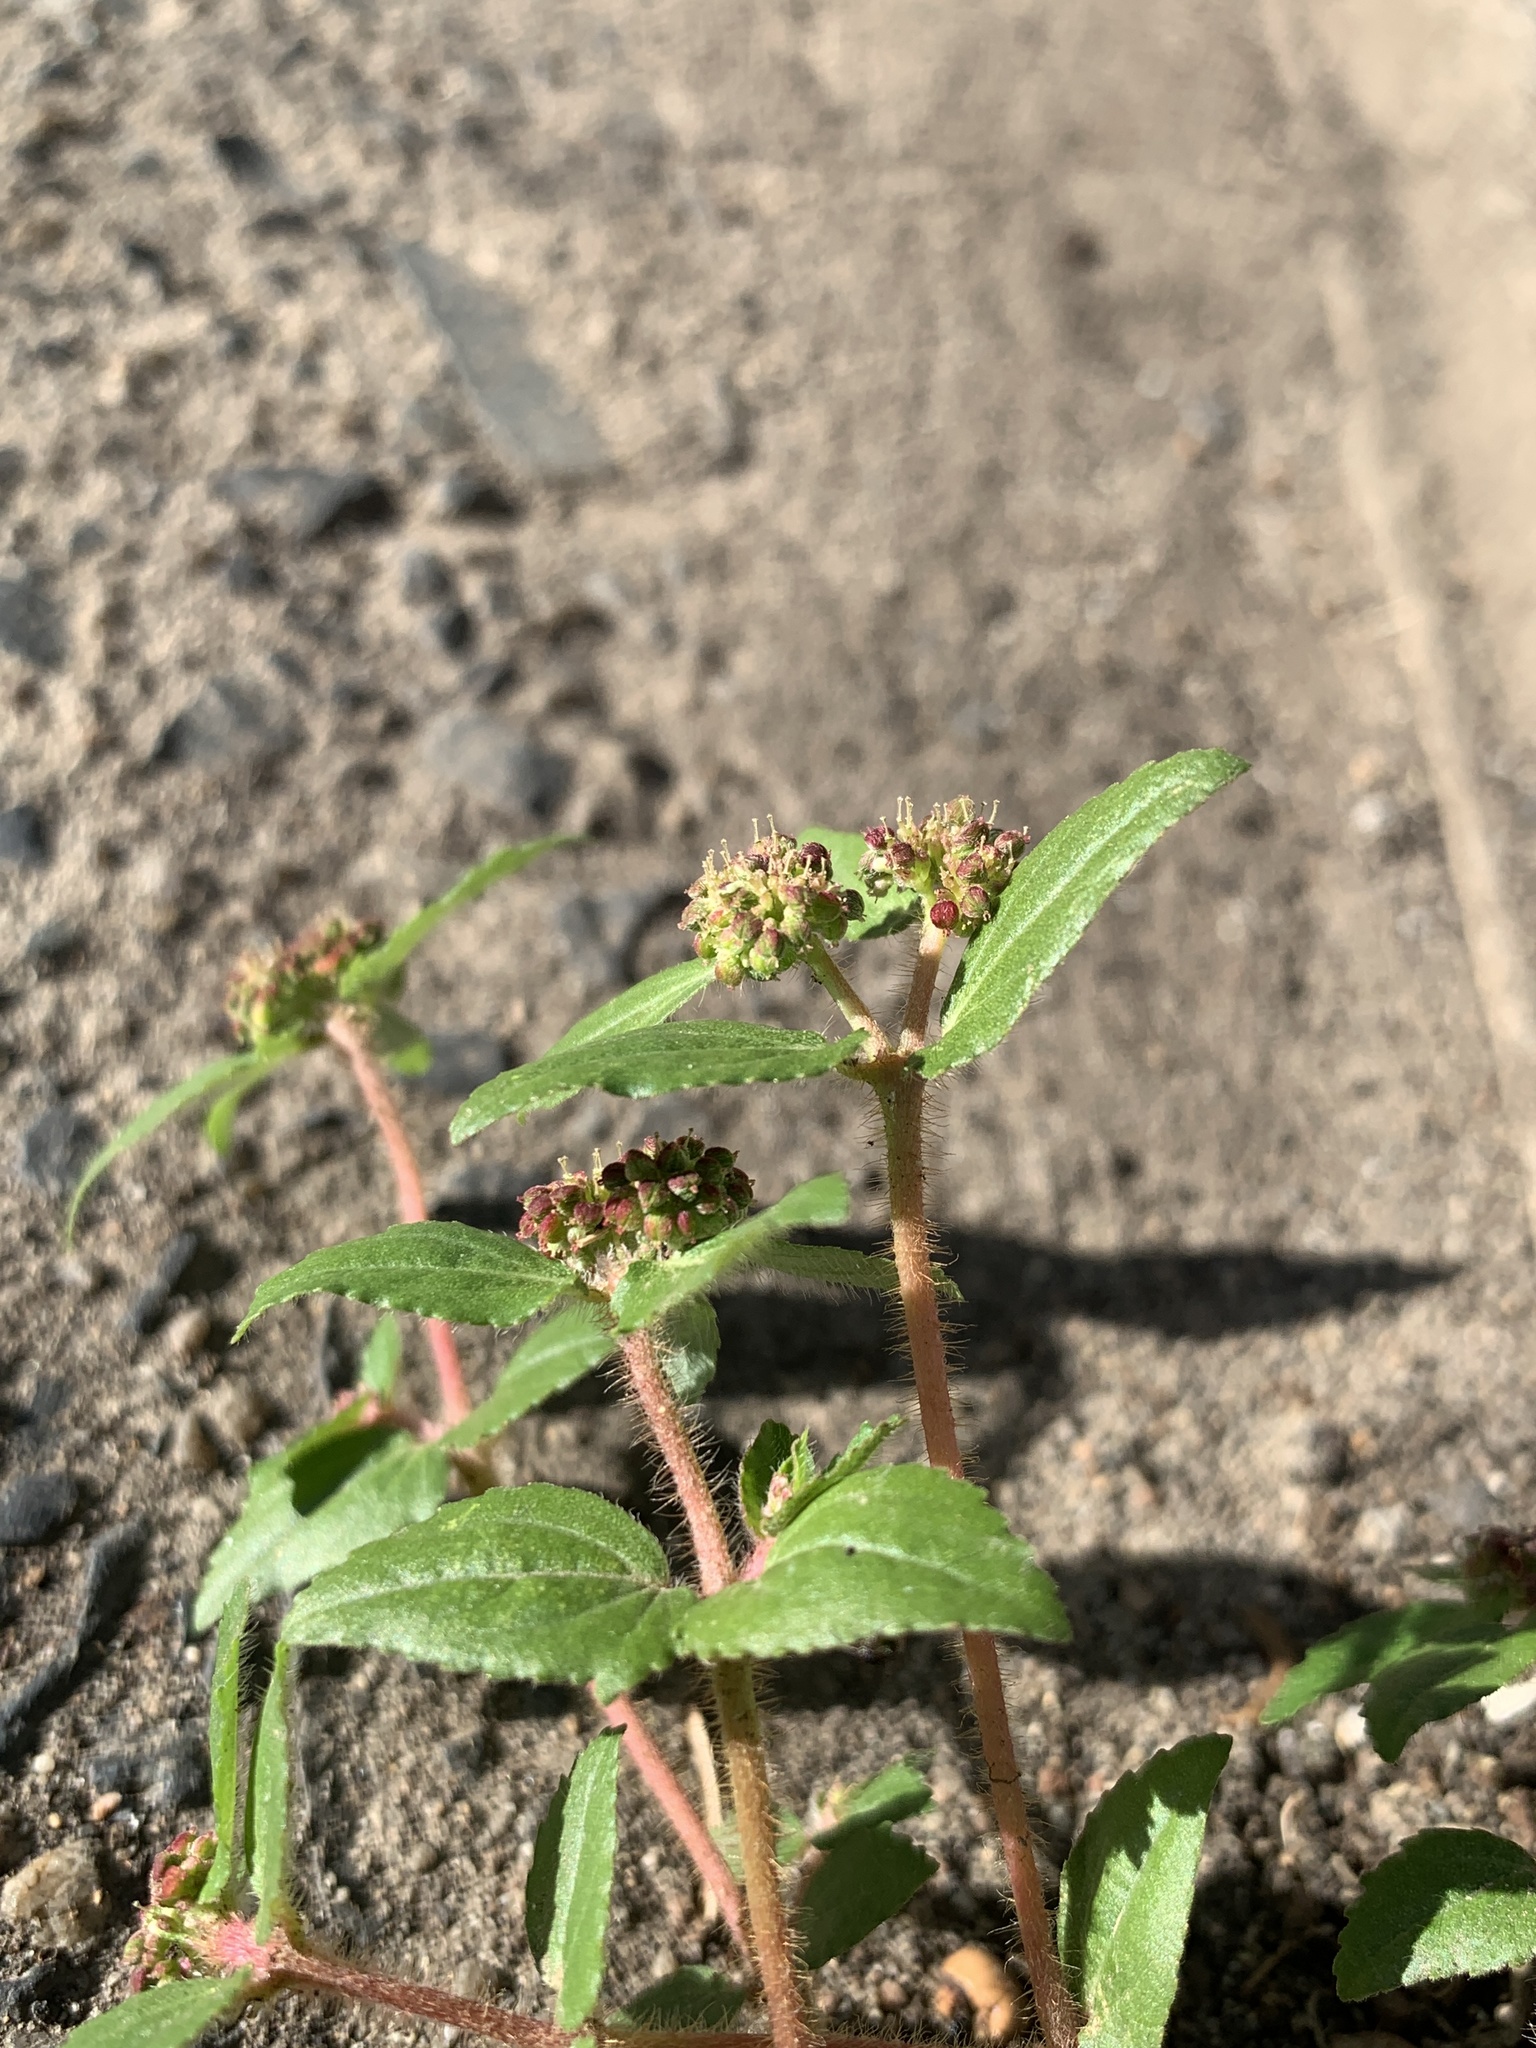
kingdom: Plantae
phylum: Tracheophyta
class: Magnoliopsida
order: Malpighiales
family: Euphorbiaceae
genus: Euphorbia
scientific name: Euphorbia ophthalmica
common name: Florida hammock sandmat
